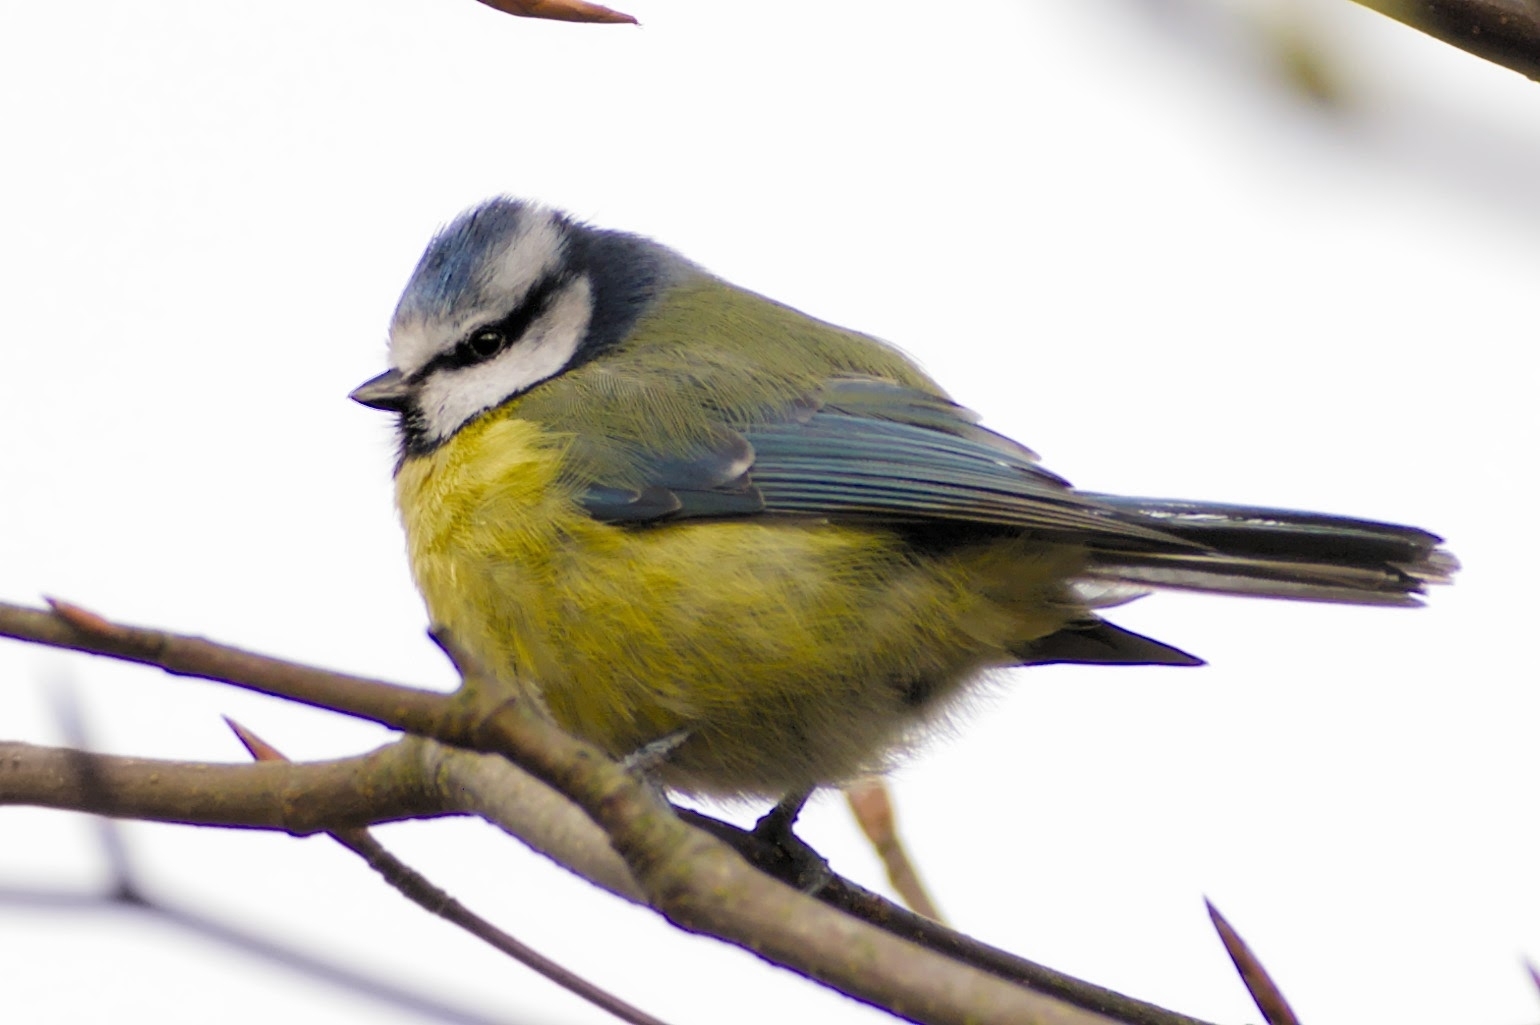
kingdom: Animalia
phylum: Chordata
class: Aves
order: Passeriformes
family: Paridae
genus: Cyanistes
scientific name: Cyanistes caeruleus
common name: Eurasian blue tit
